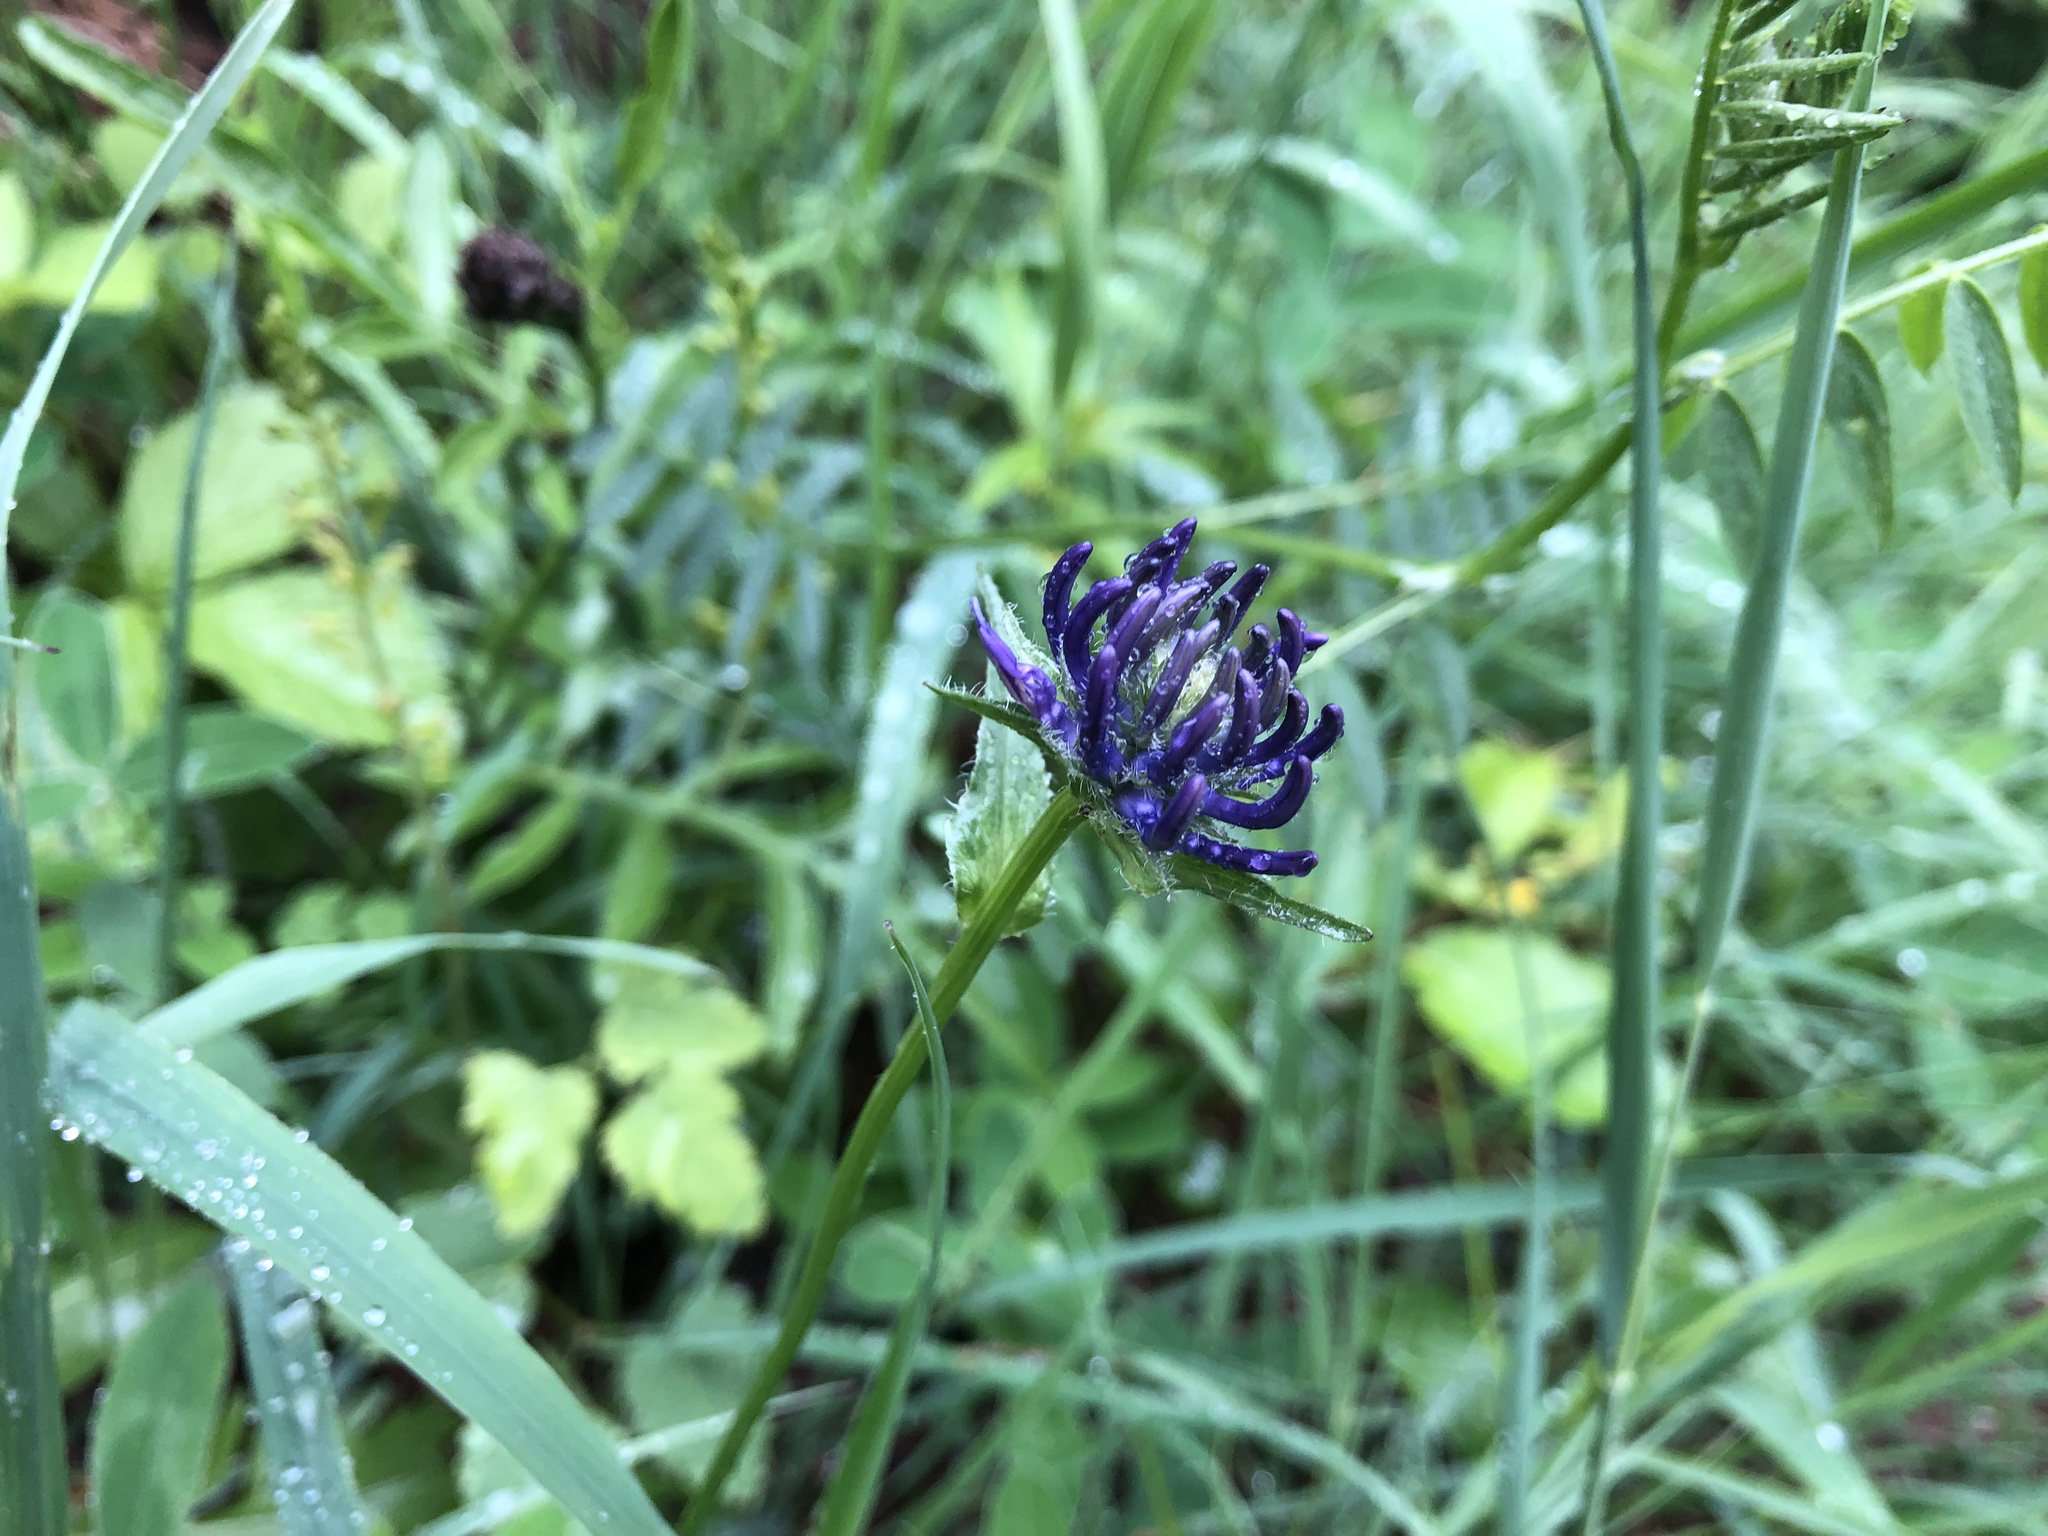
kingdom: Plantae
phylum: Tracheophyta
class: Magnoliopsida
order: Asterales
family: Campanulaceae
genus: Phyteuma
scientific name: Phyteuma orbiculare
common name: Round-headed rampion
